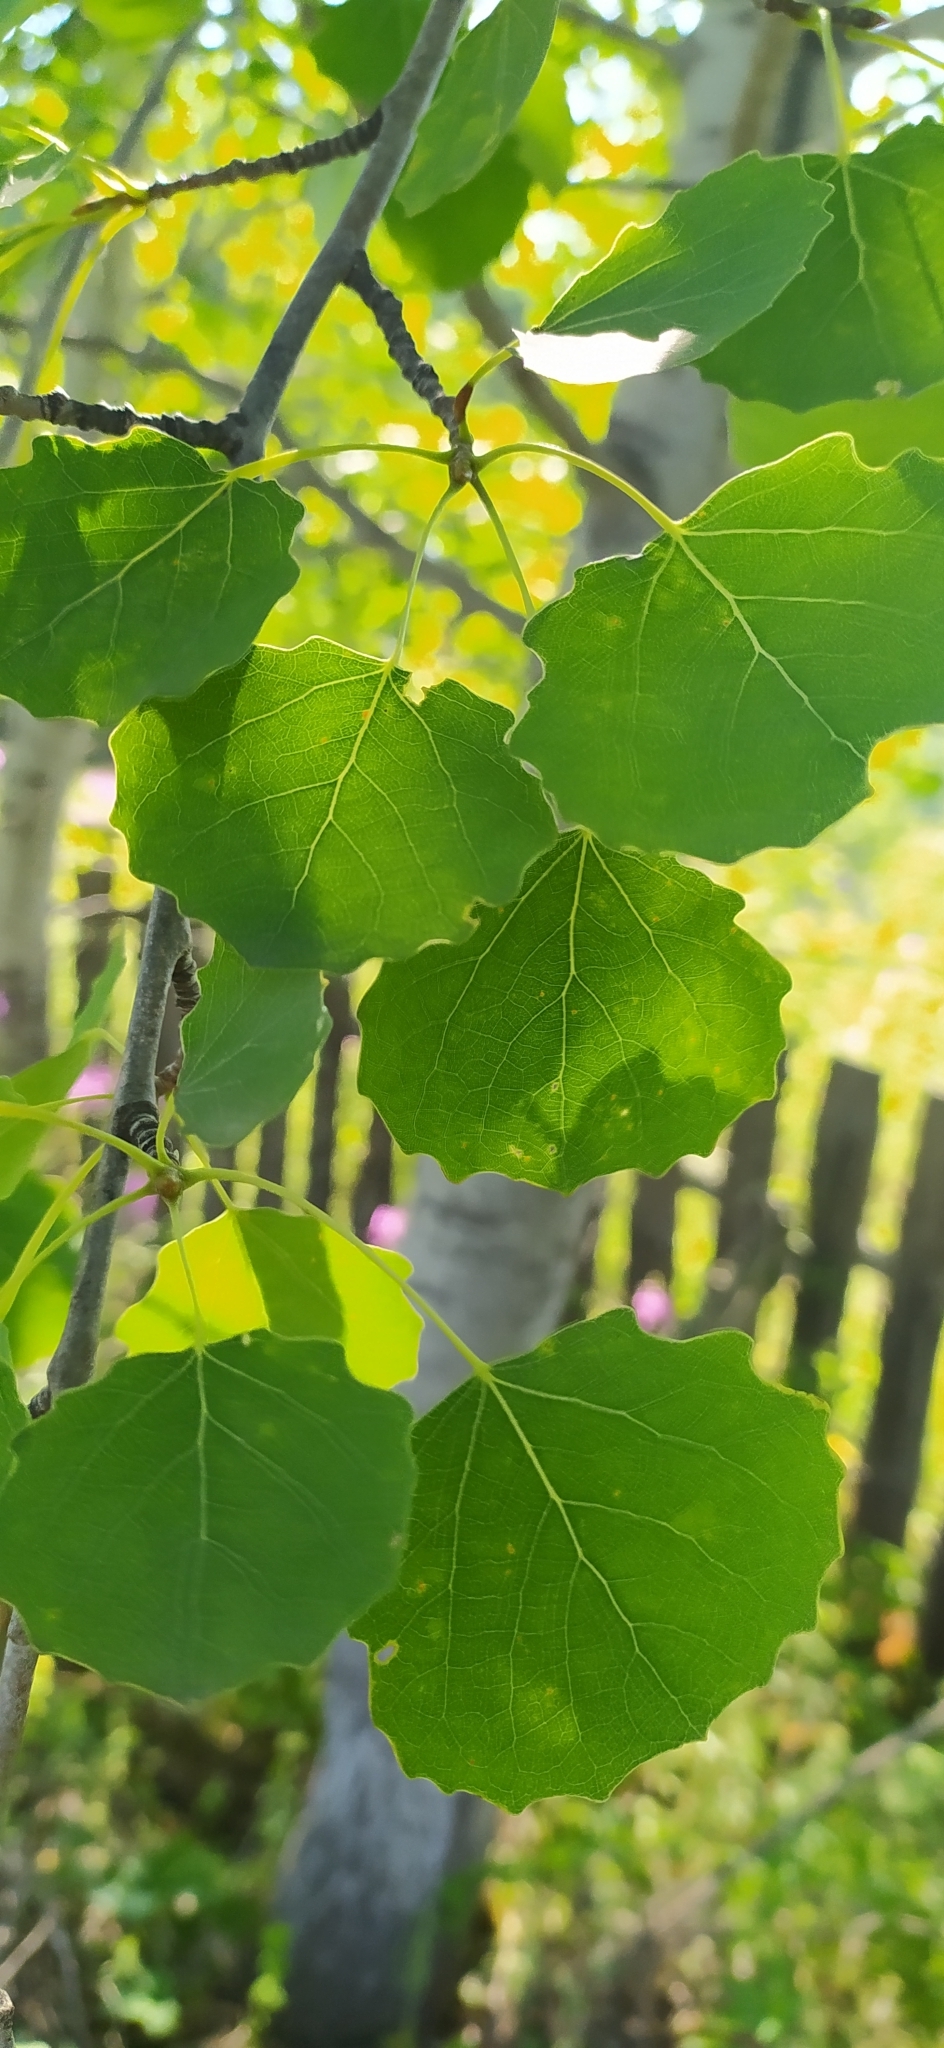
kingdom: Plantae
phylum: Tracheophyta
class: Magnoliopsida
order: Malpighiales
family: Salicaceae
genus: Populus
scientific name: Populus tremula
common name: European aspen
